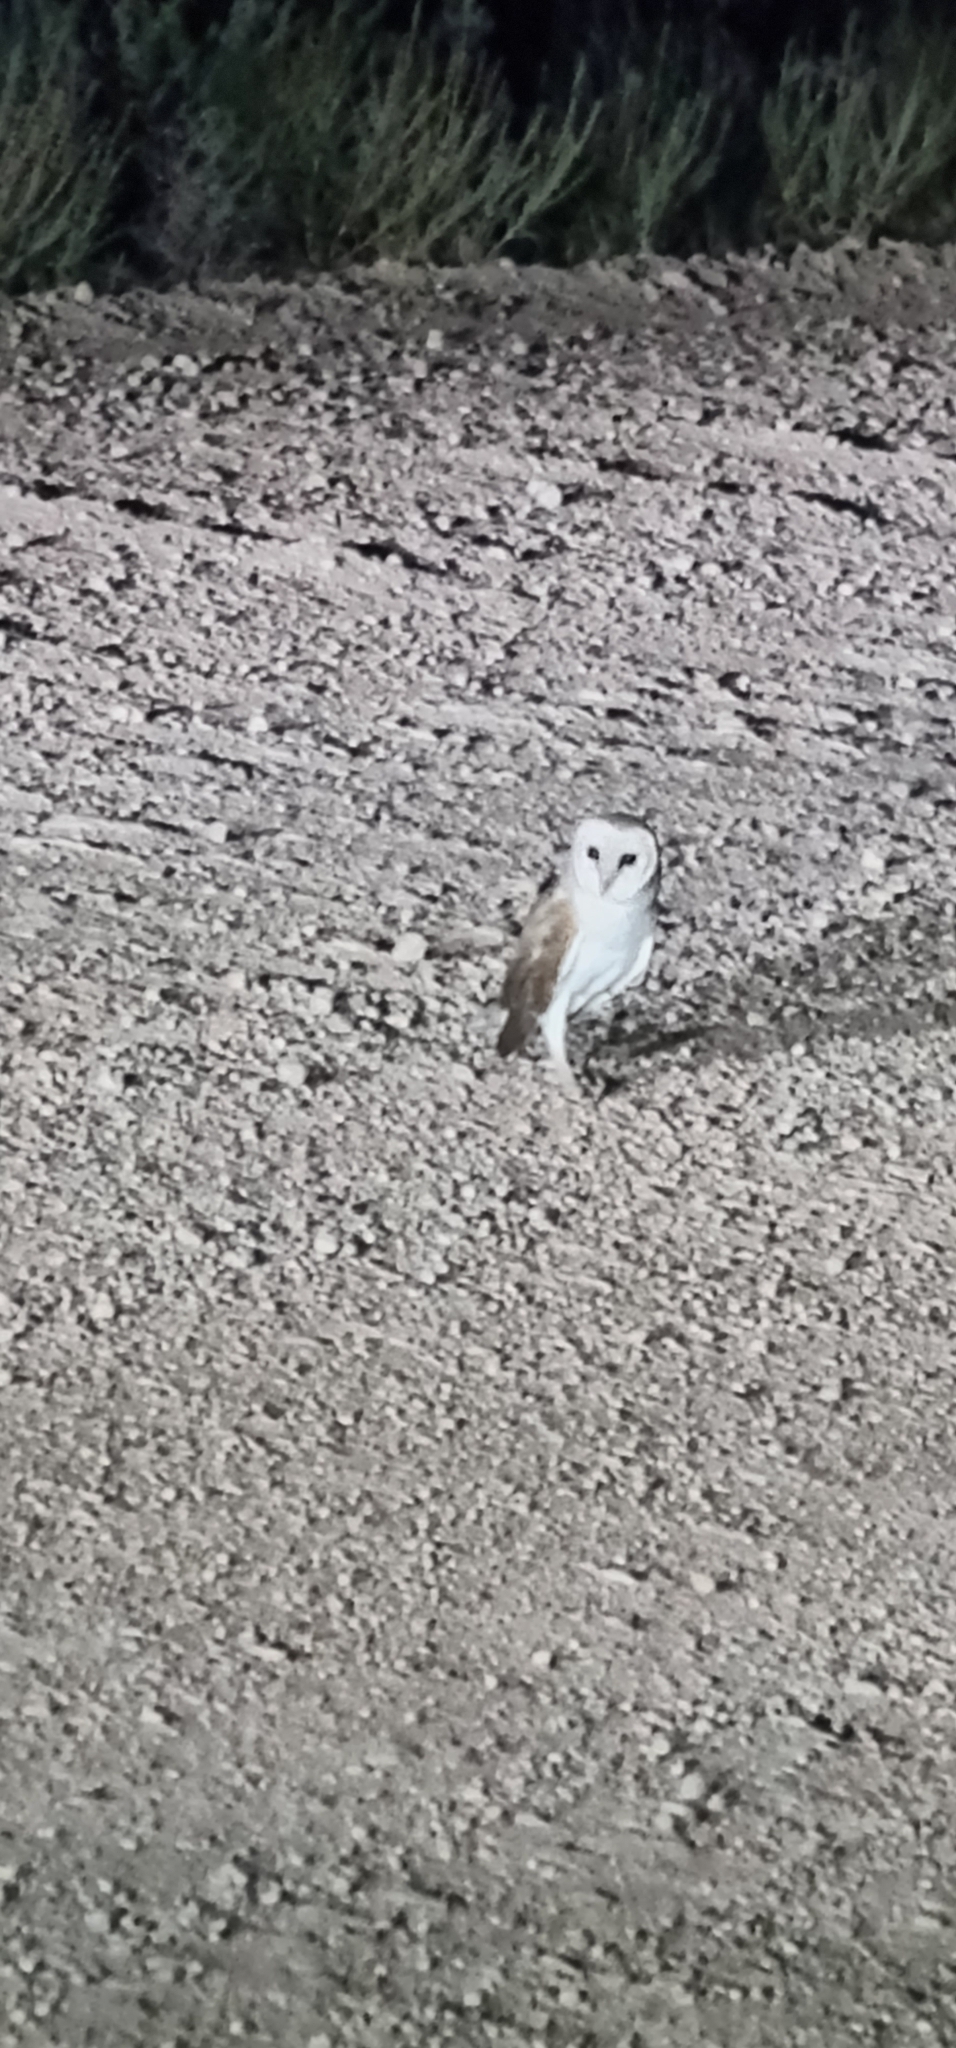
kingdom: Animalia
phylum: Chordata
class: Aves
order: Strigiformes
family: Tytonidae
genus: Tyto
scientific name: Tyto alba
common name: Barn owl
